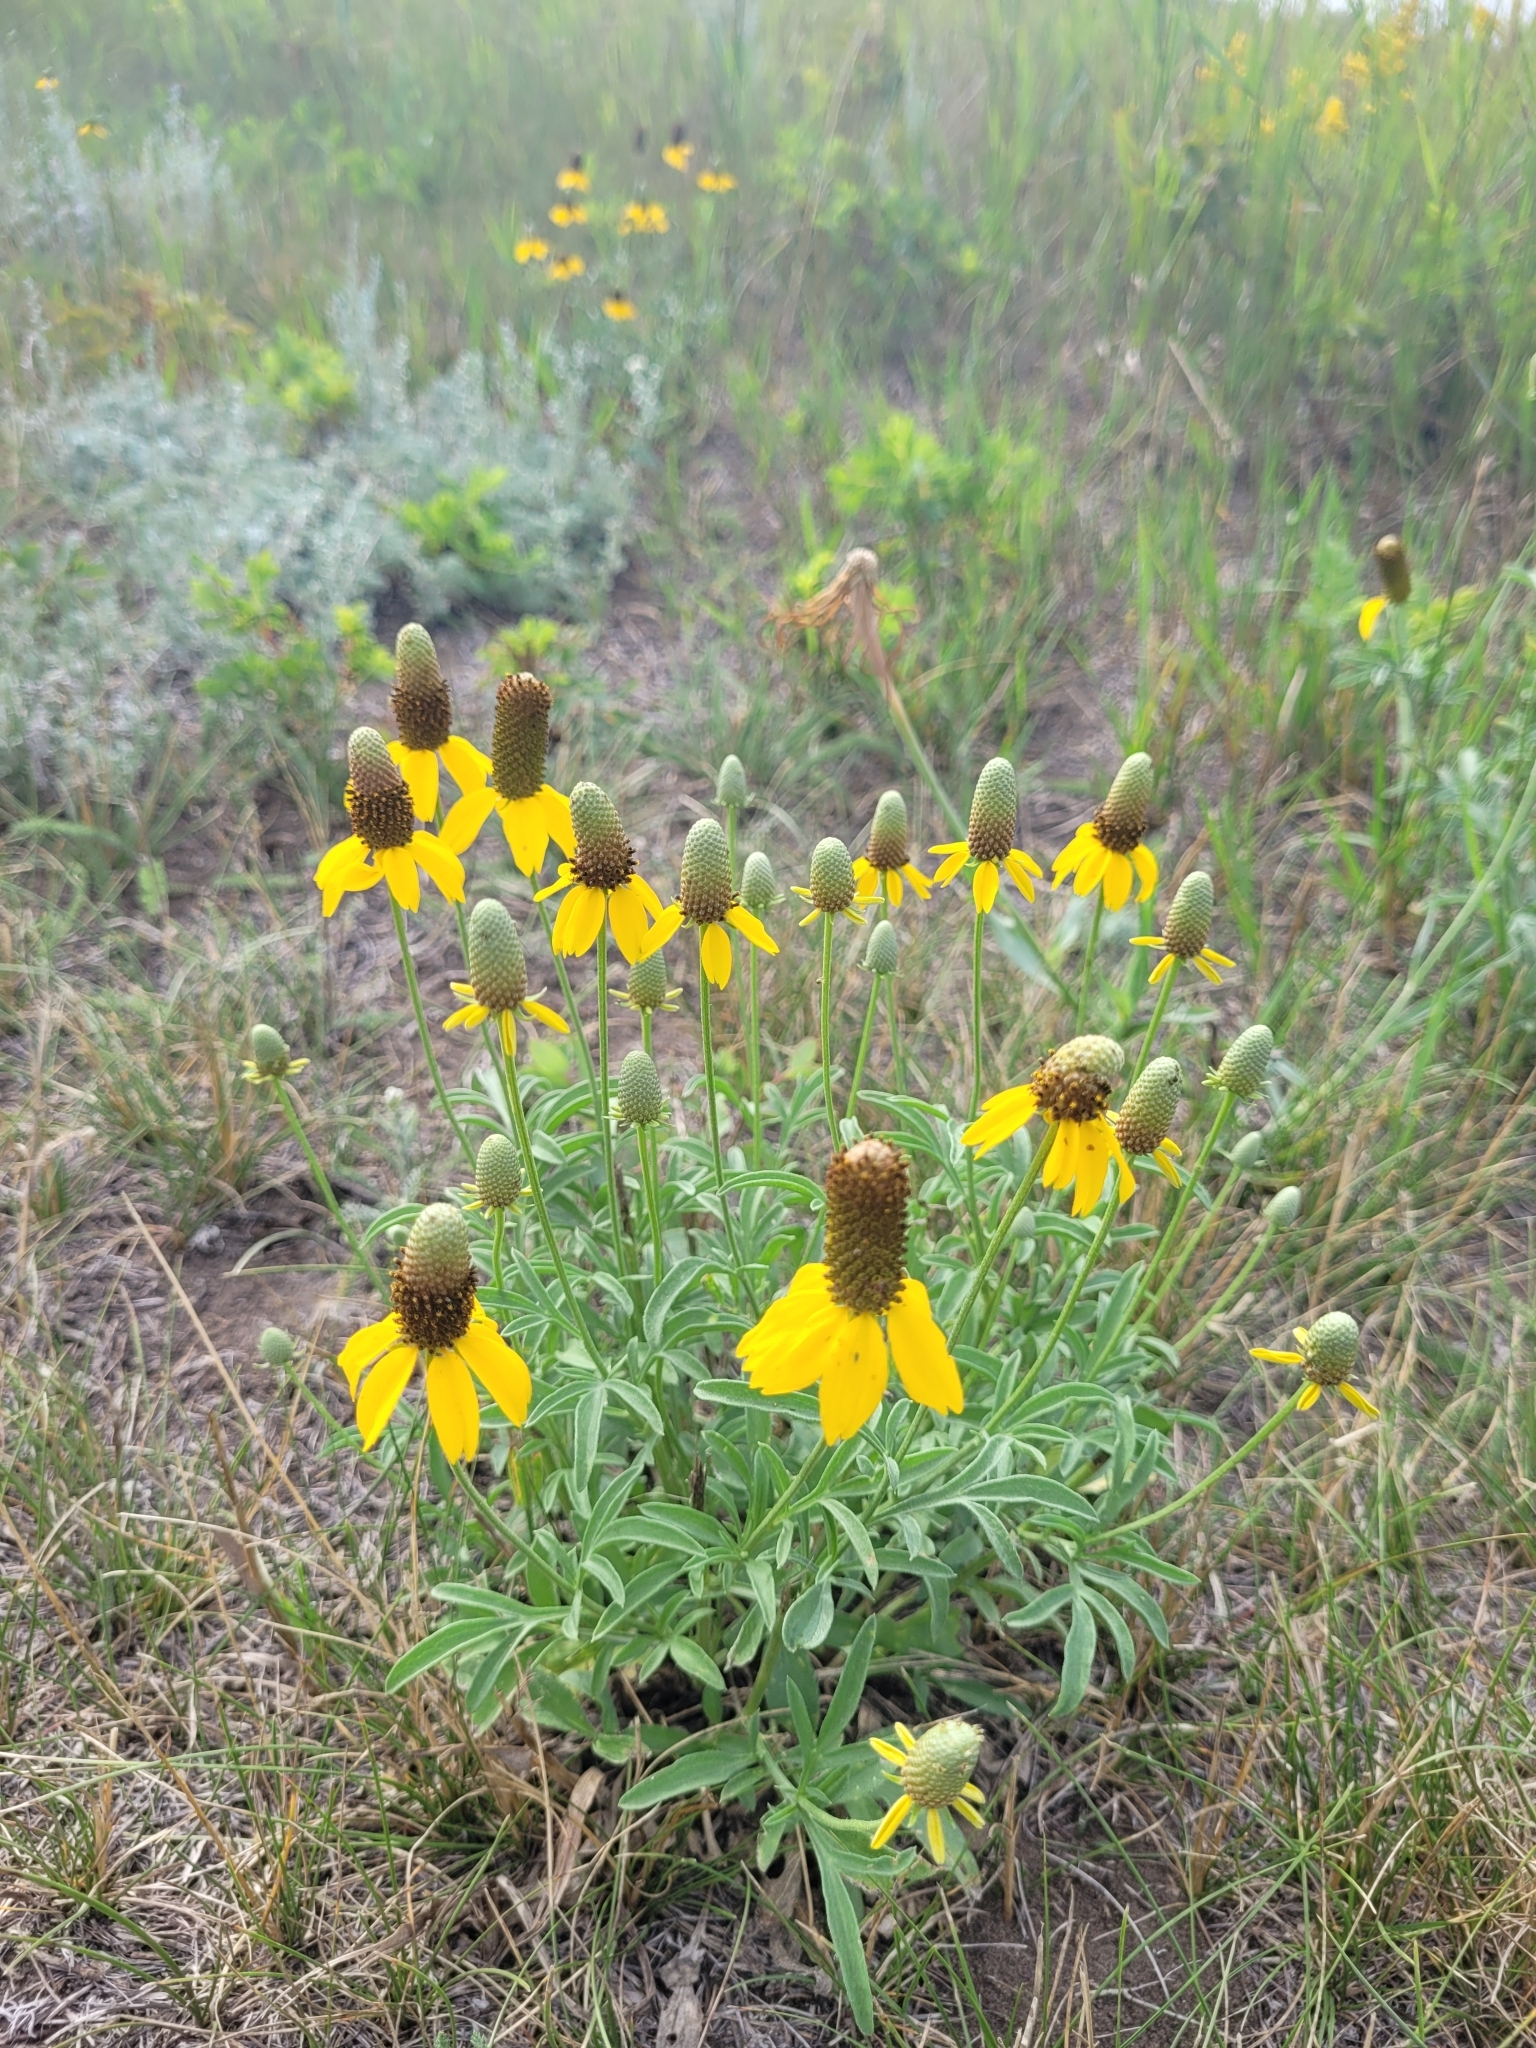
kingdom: Plantae
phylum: Tracheophyta
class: Magnoliopsida
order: Asterales
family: Asteraceae
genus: Ratibida
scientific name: Ratibida columnifera
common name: Prairie coneflower
